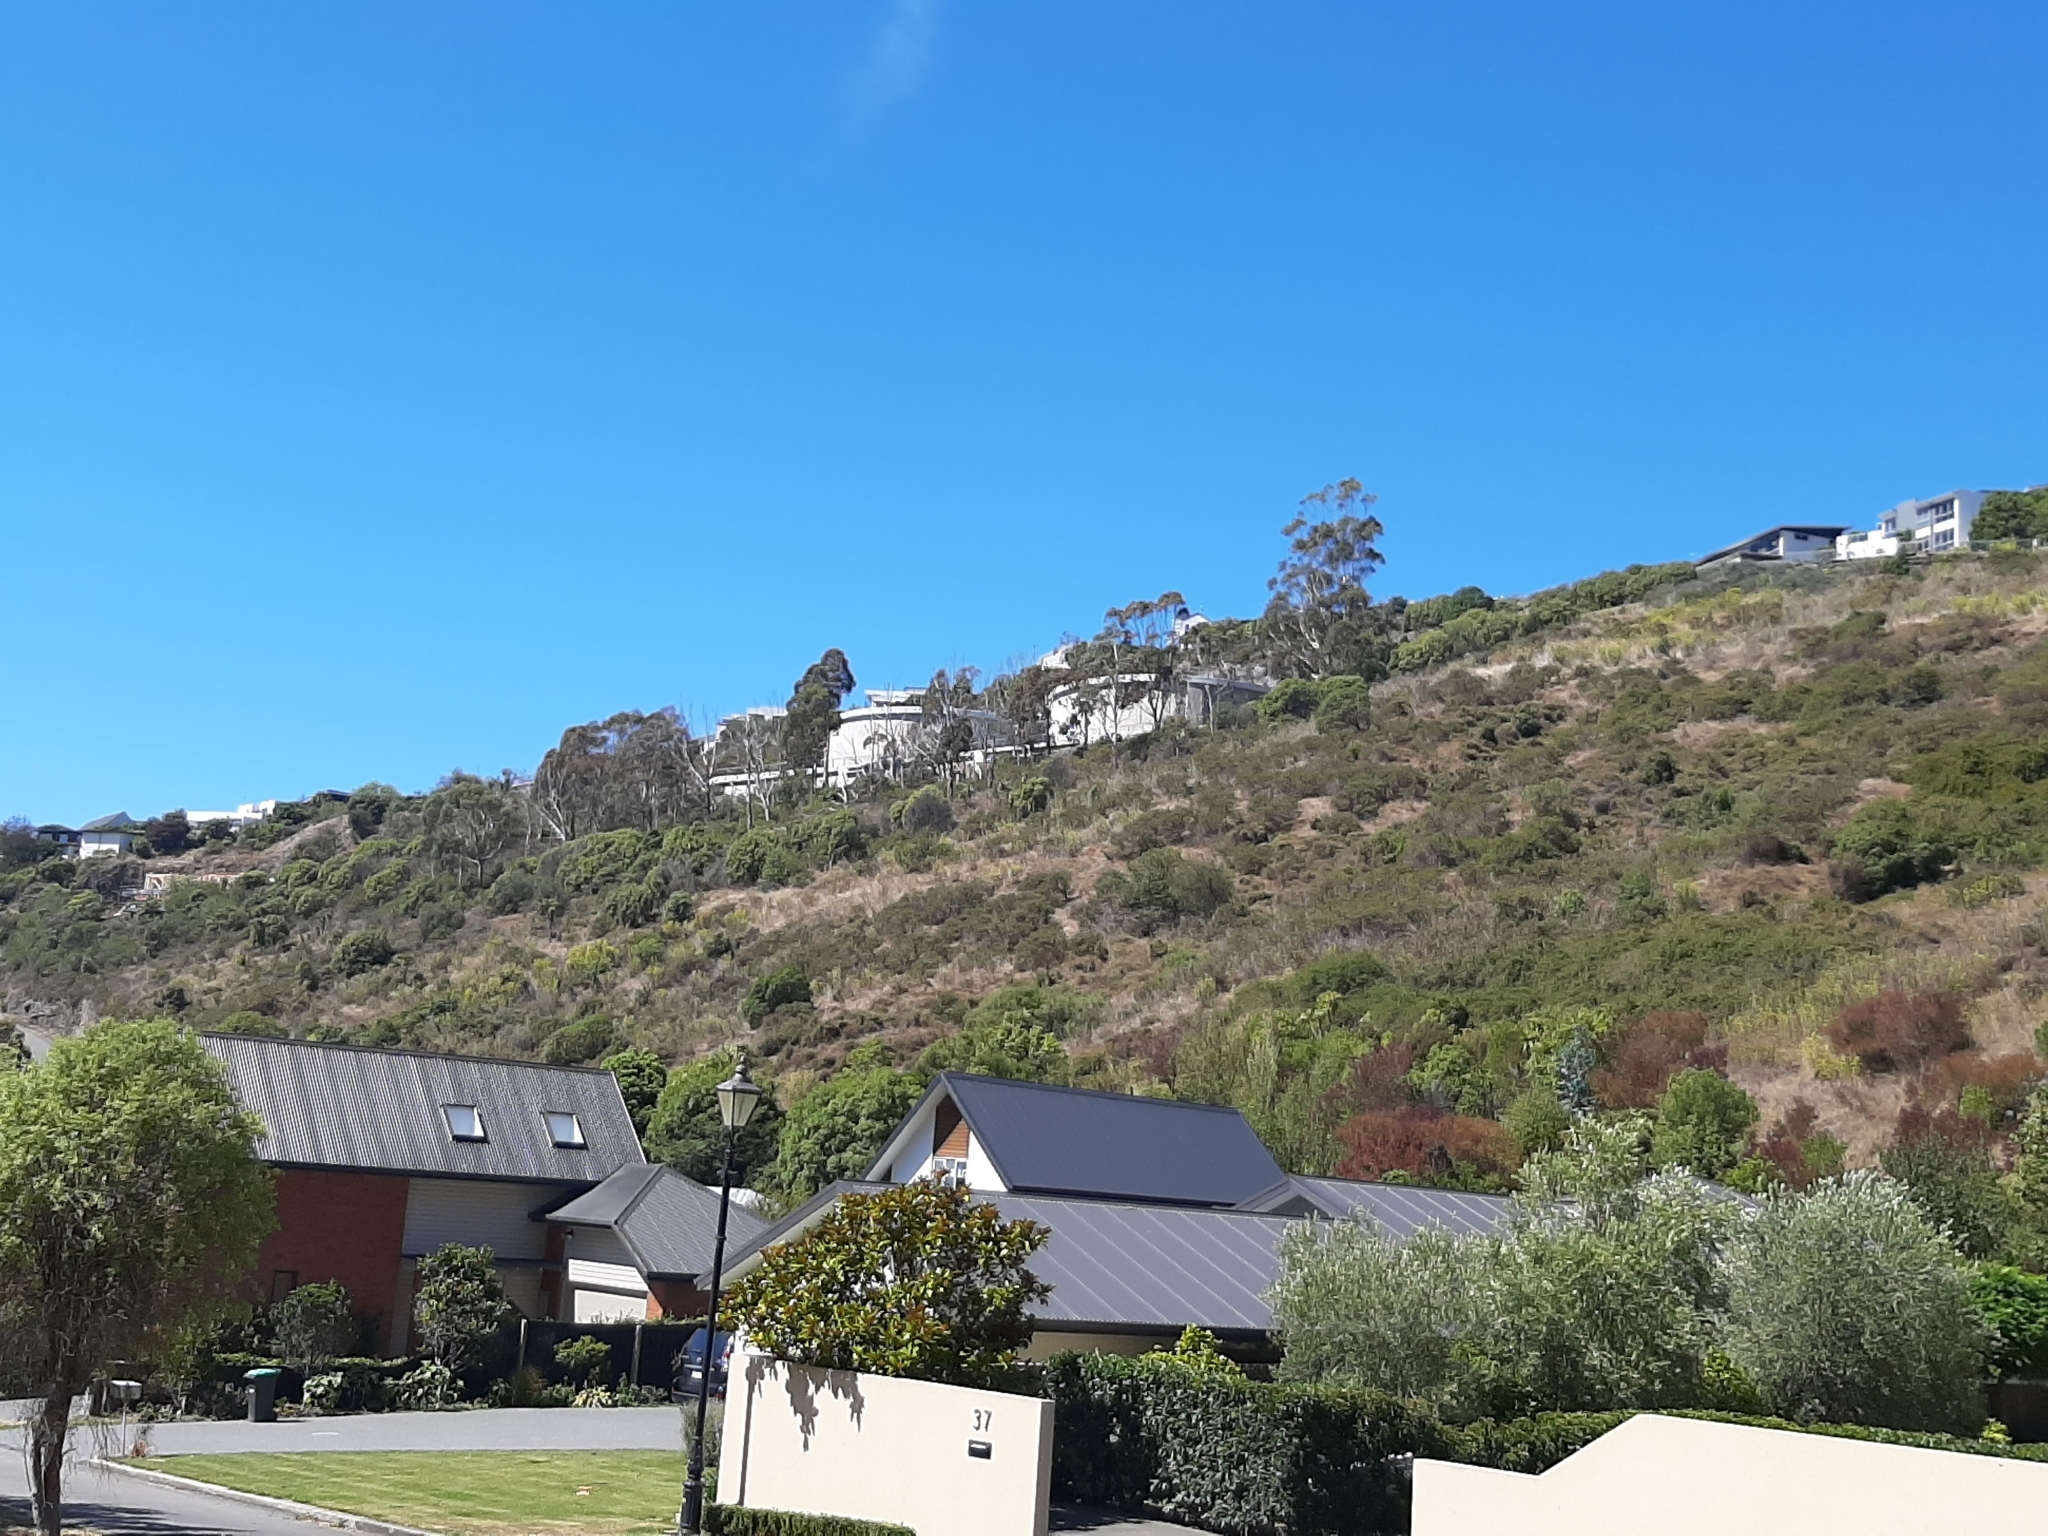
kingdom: Plantae
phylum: Tracheophyta
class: Magnoliopsida
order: Caryophyllales
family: Polygonaceae
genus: Muehlenbeckia
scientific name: Muehlenbeckia complexa
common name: Wireplant
